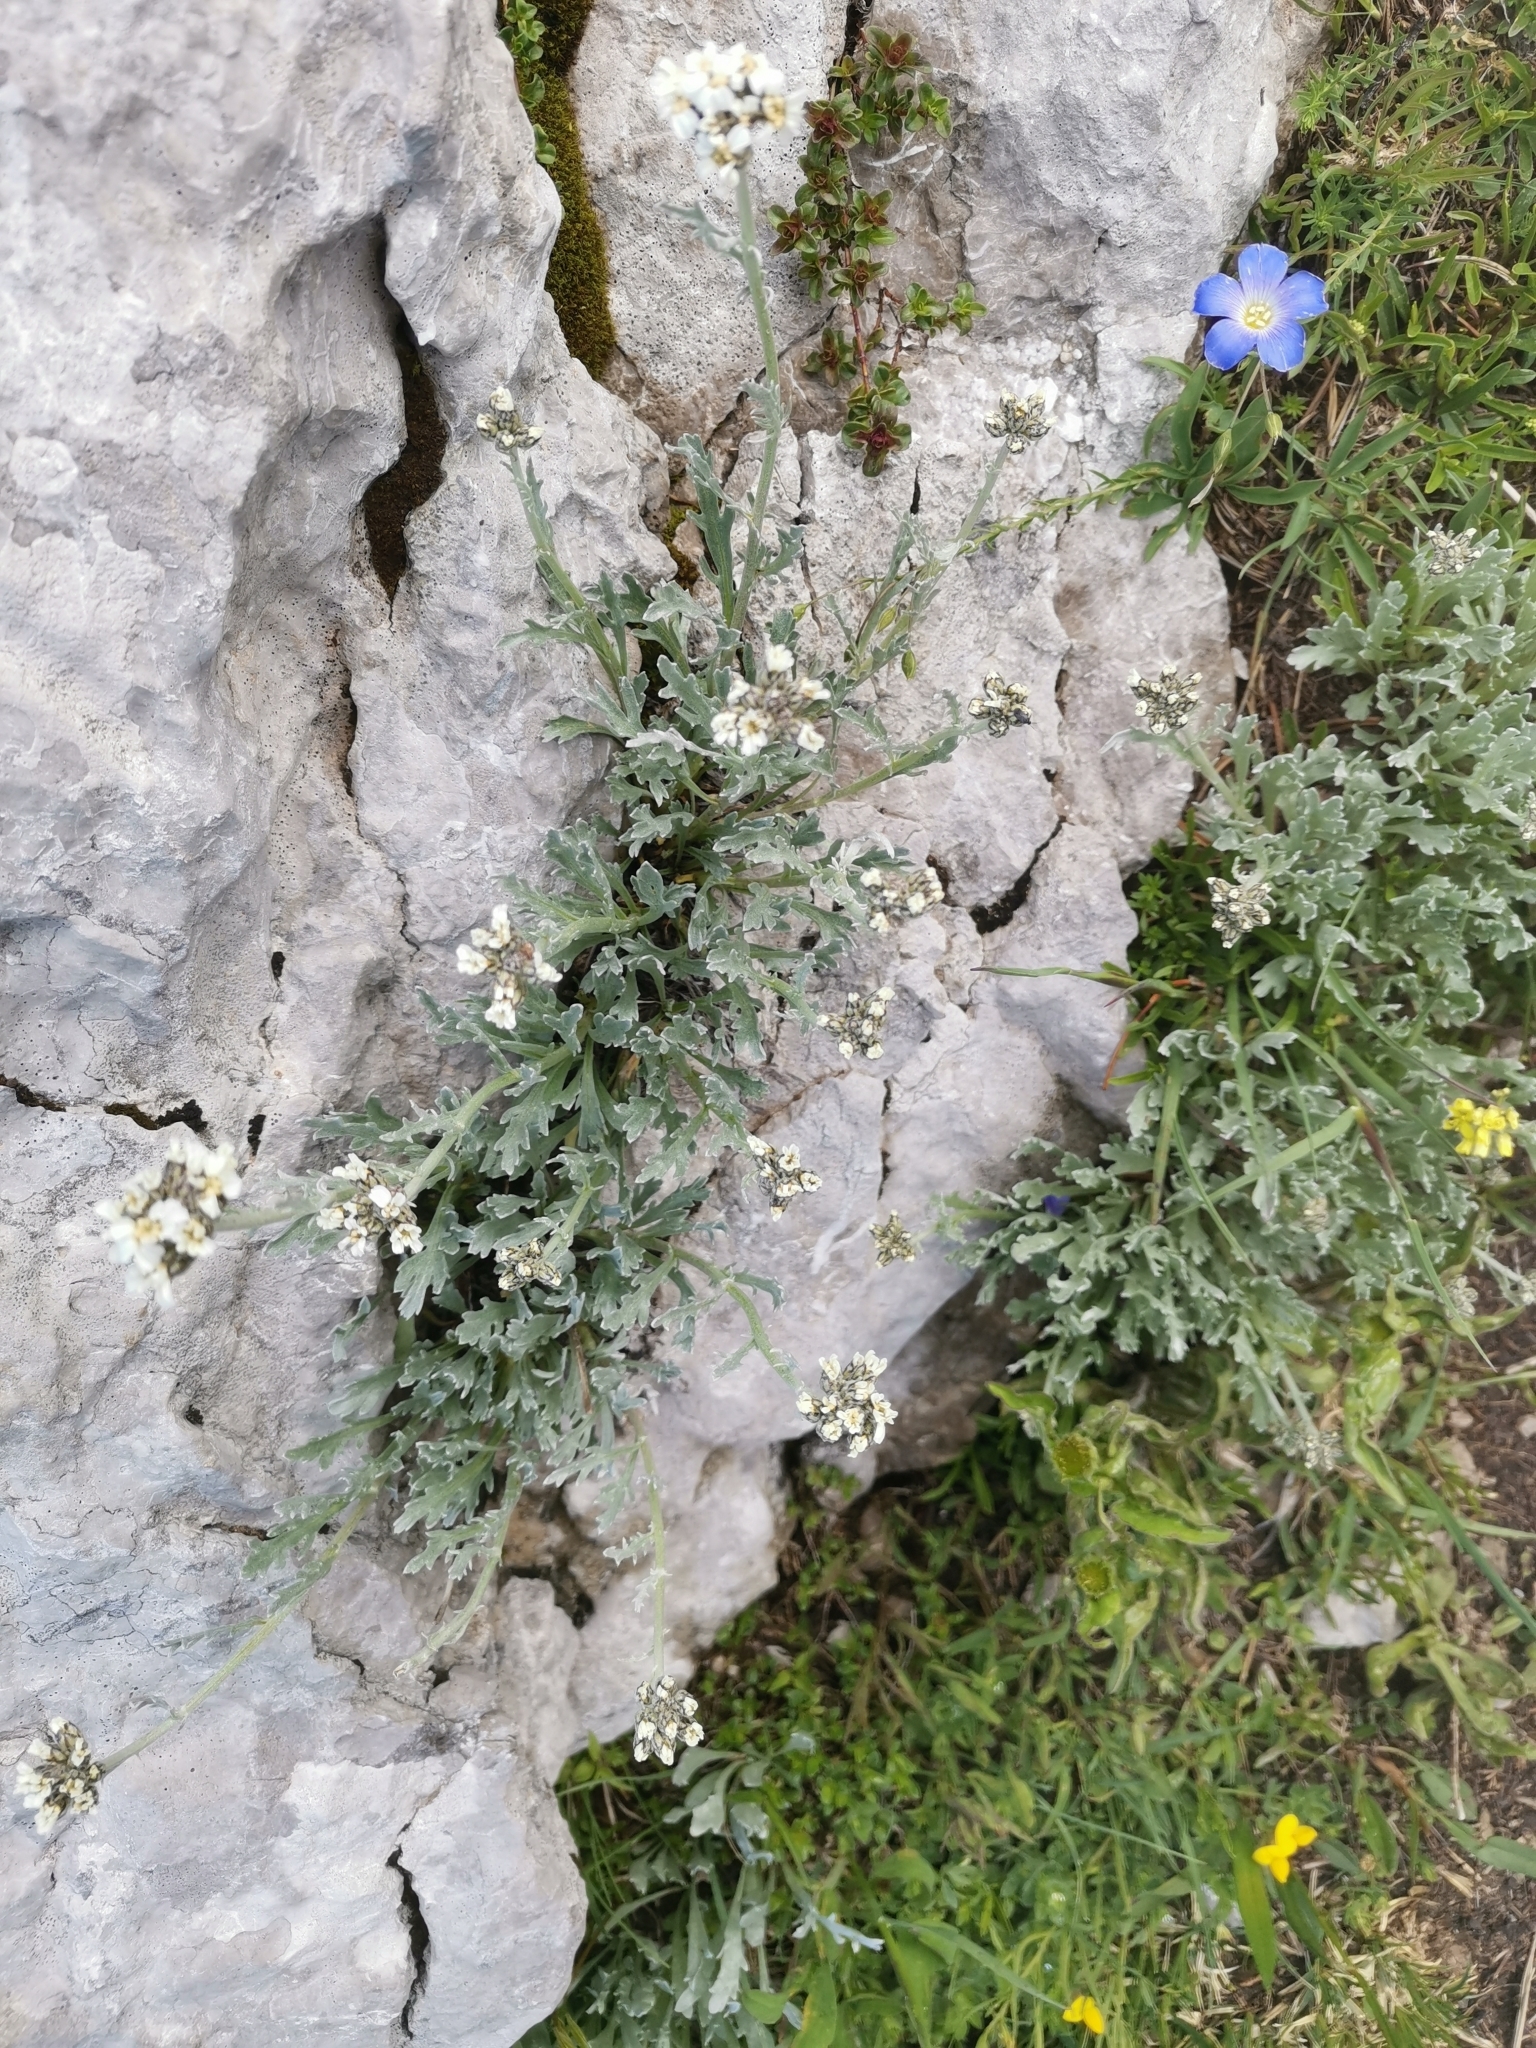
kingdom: Plantae
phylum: Tracheophyta
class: Magnoliopsida
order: Asterales
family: Asteraceae
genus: Achillea
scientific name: Achillea clavennae
